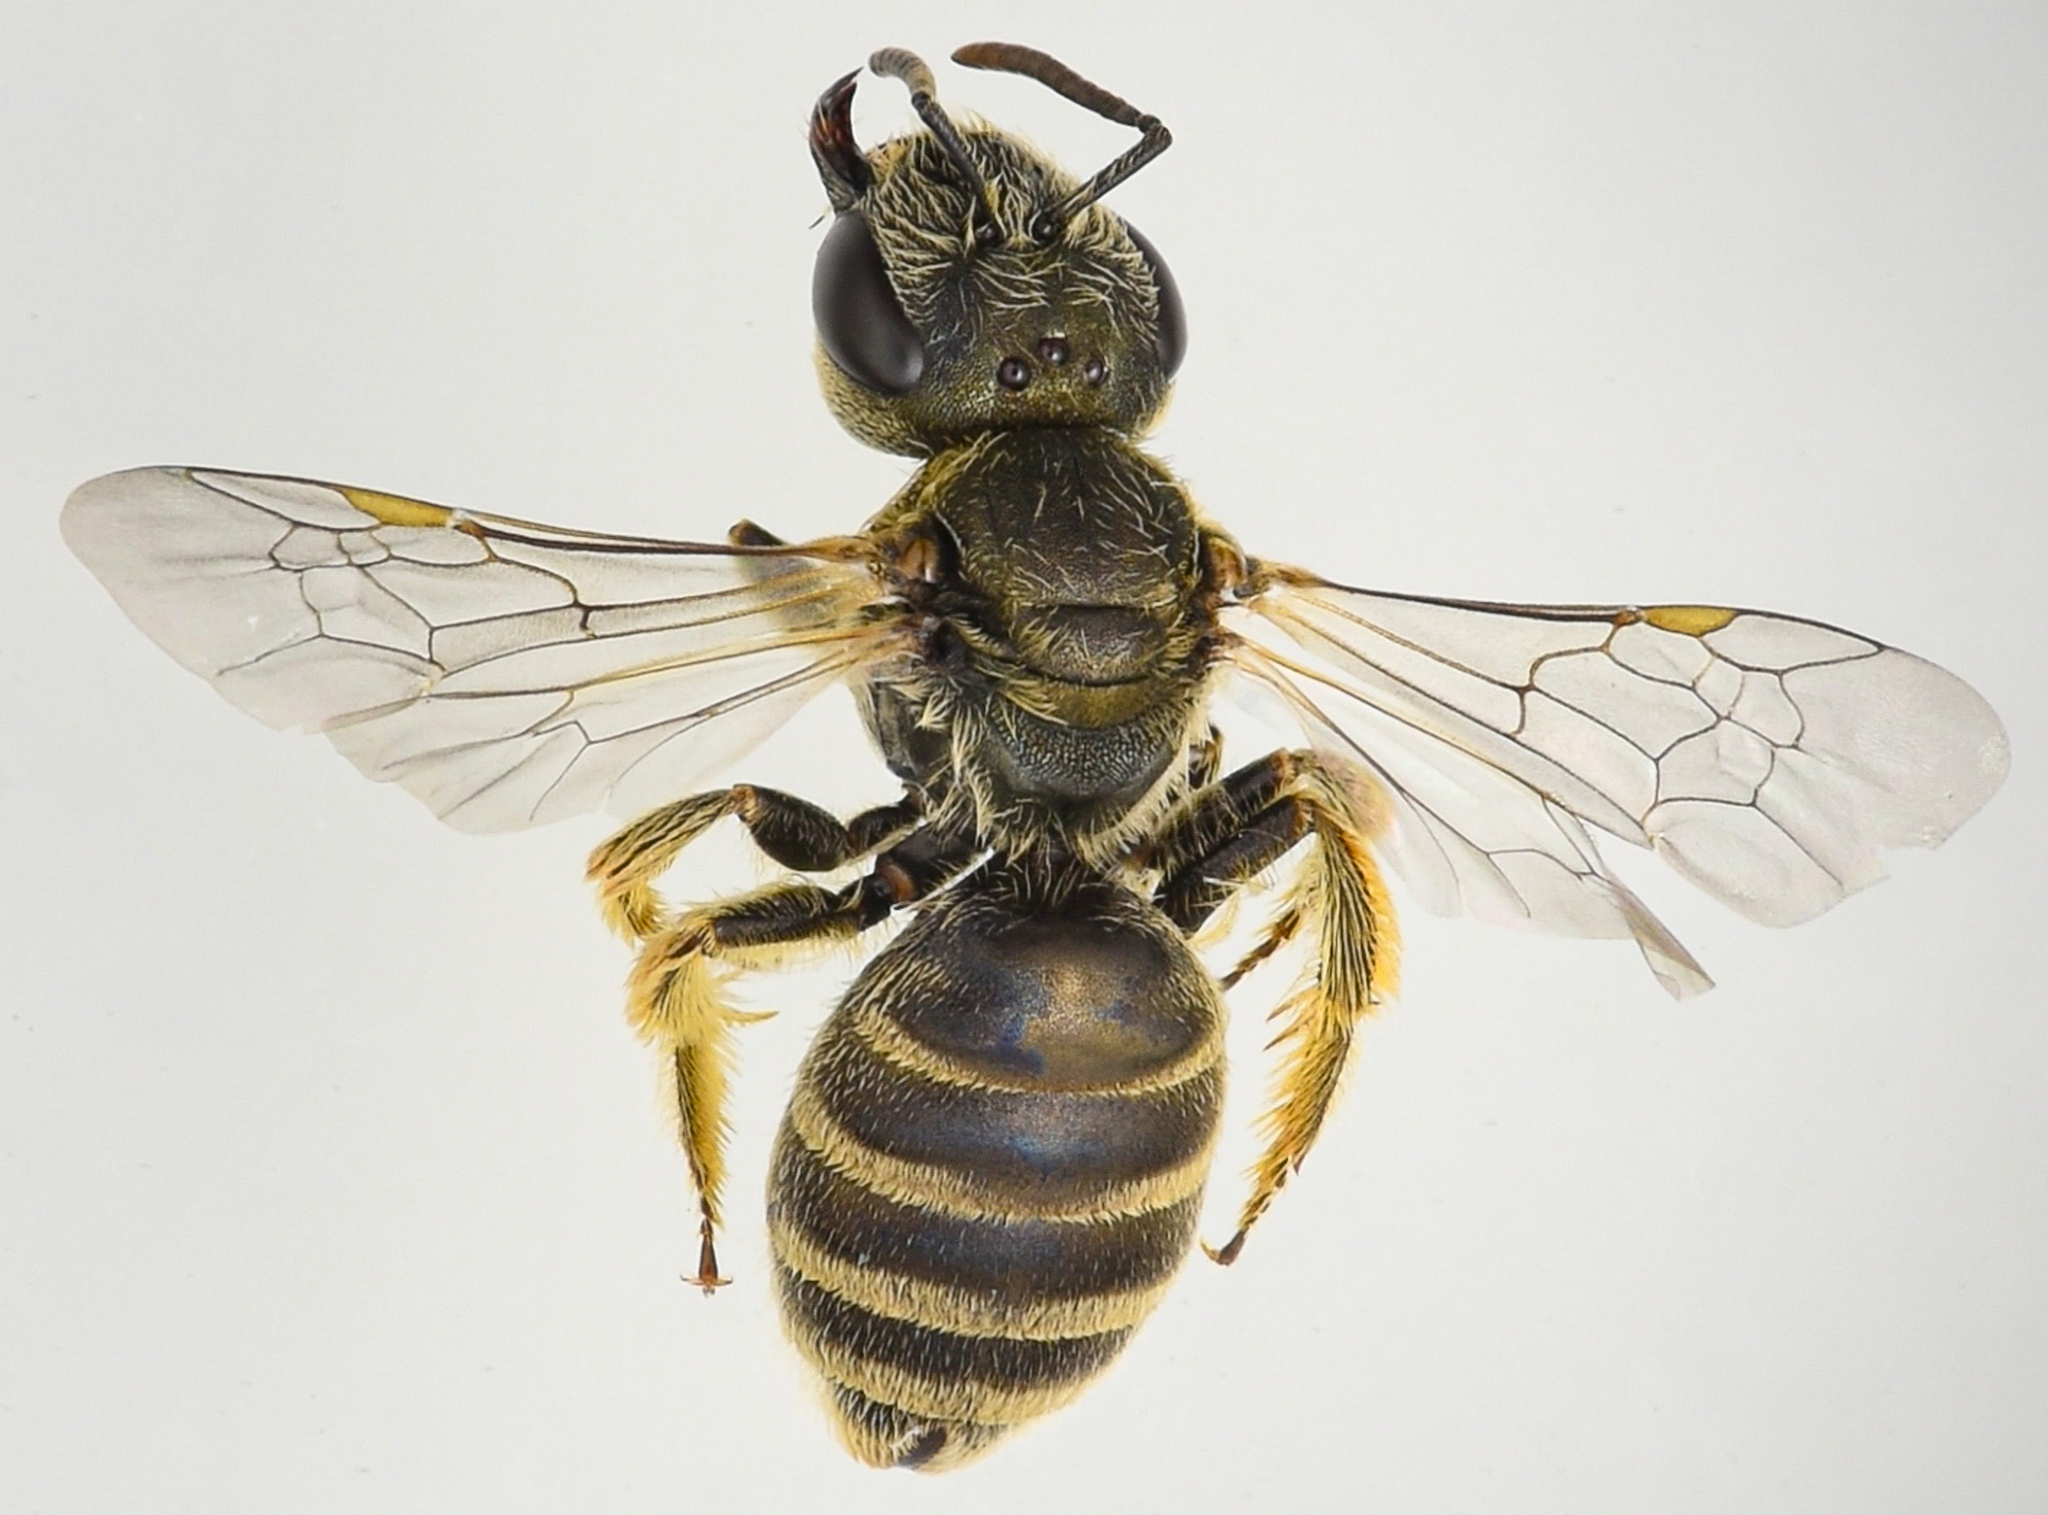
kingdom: Animalia
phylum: Arthropoda
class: Insecta
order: Hymenoptera
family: Halictidae
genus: Halictus
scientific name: Halictus tripartitus
